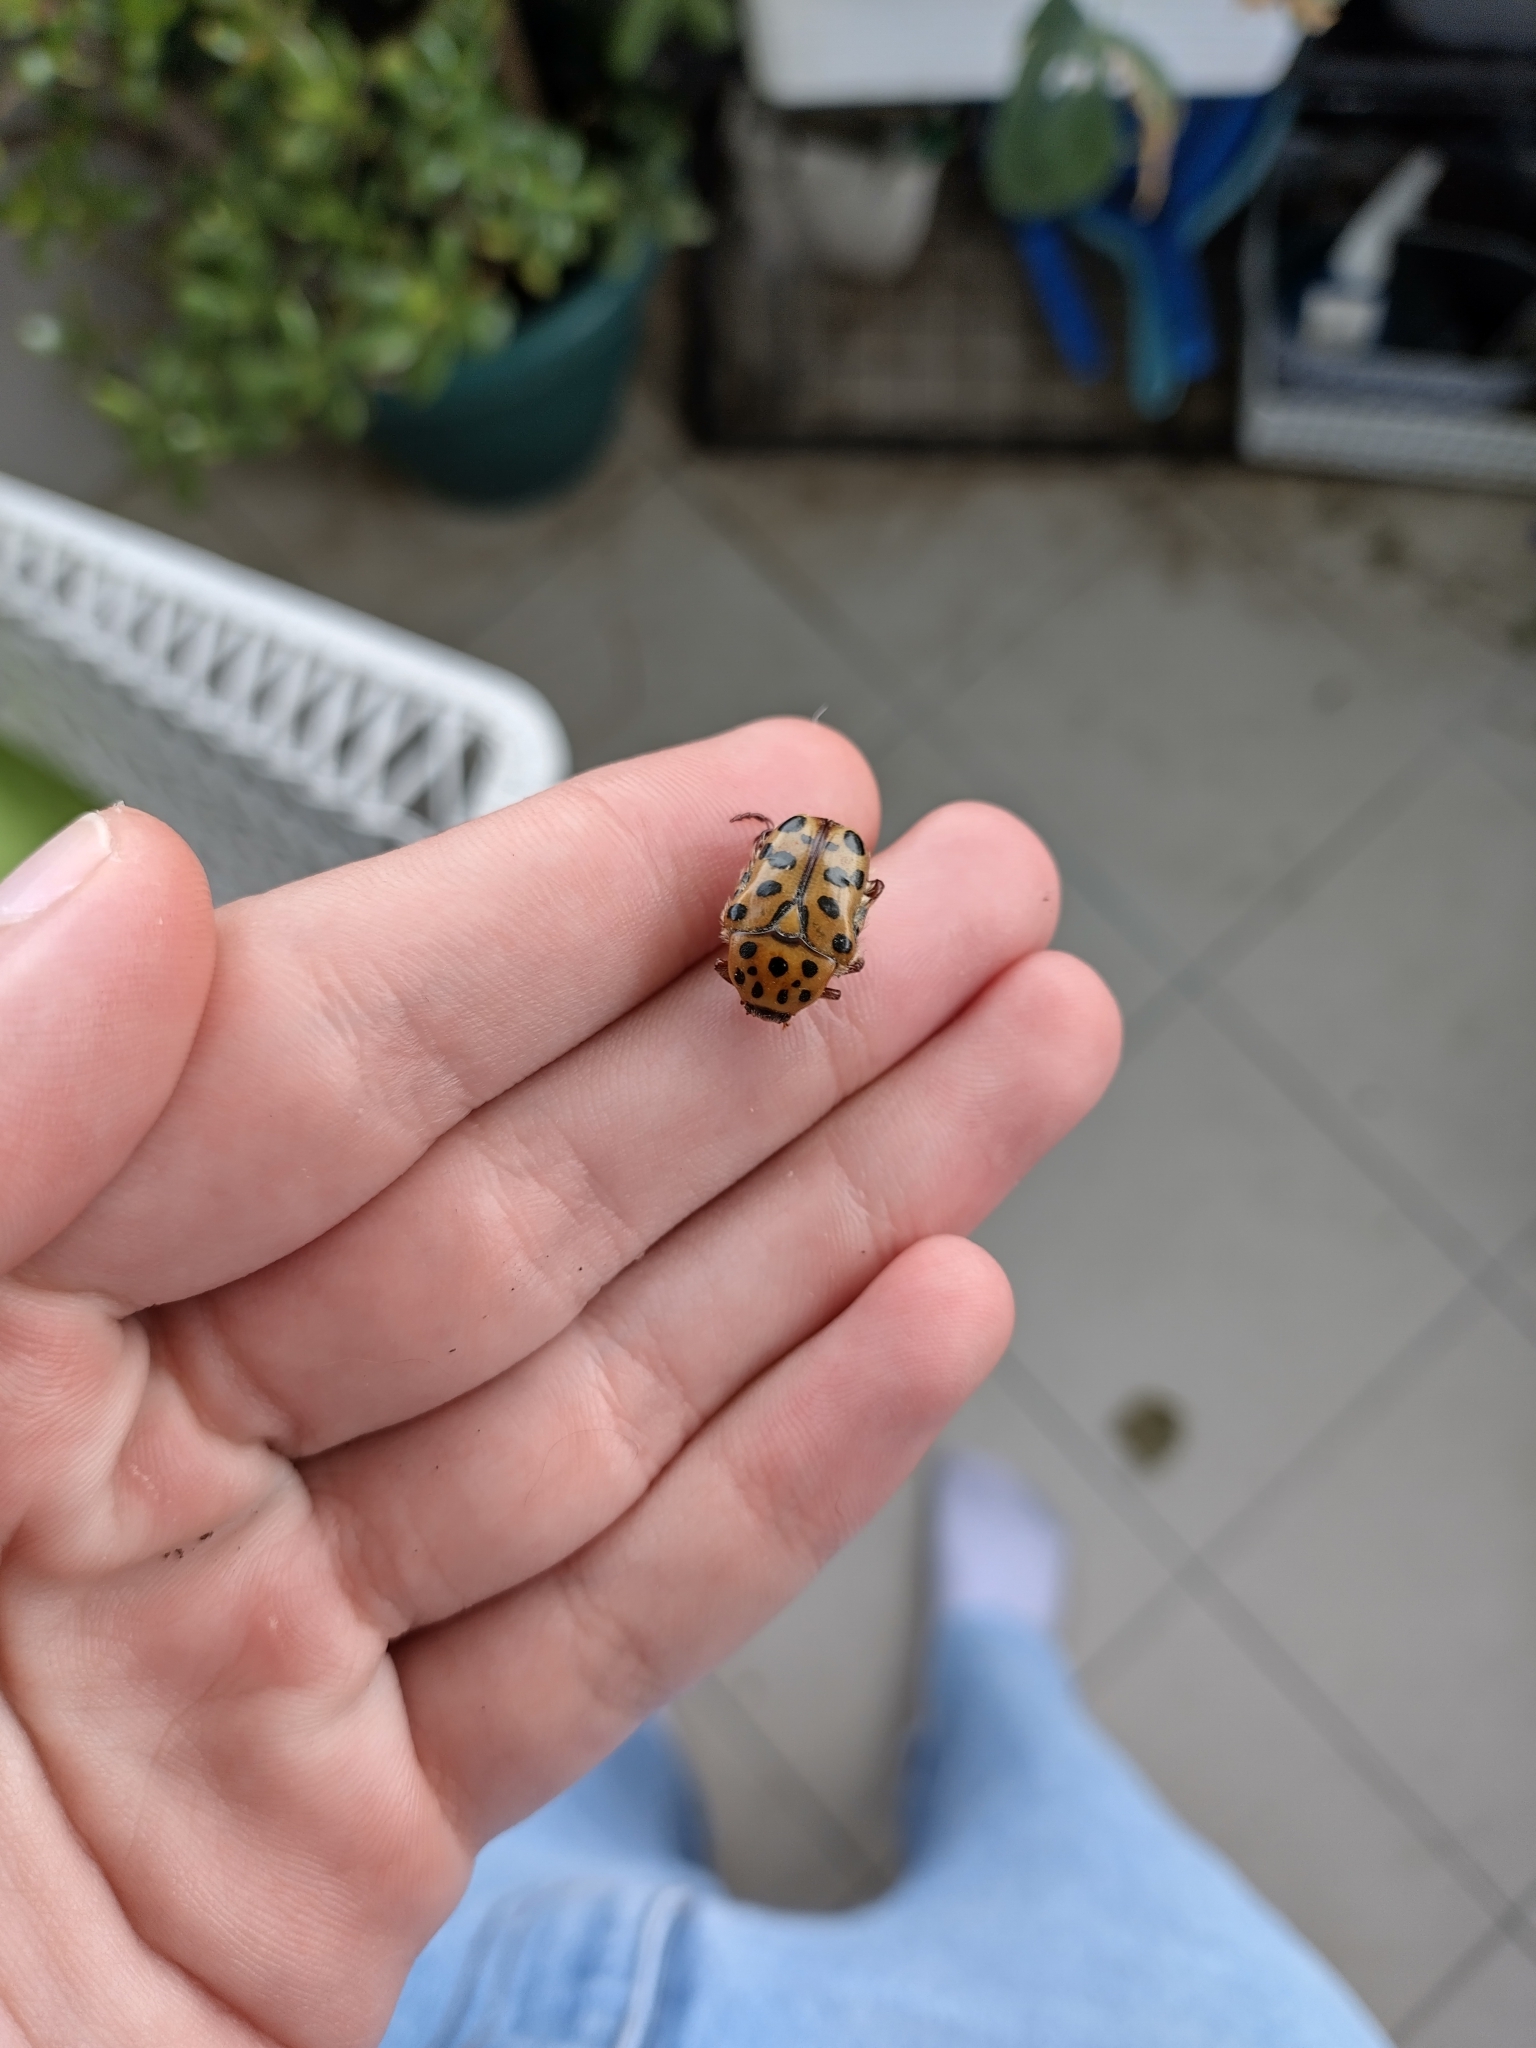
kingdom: Animalia
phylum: Arthropoda
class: Insecta
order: Coleoptera
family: Scarabaeidae
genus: Neorrhina
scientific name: Neorrhina punctatum
